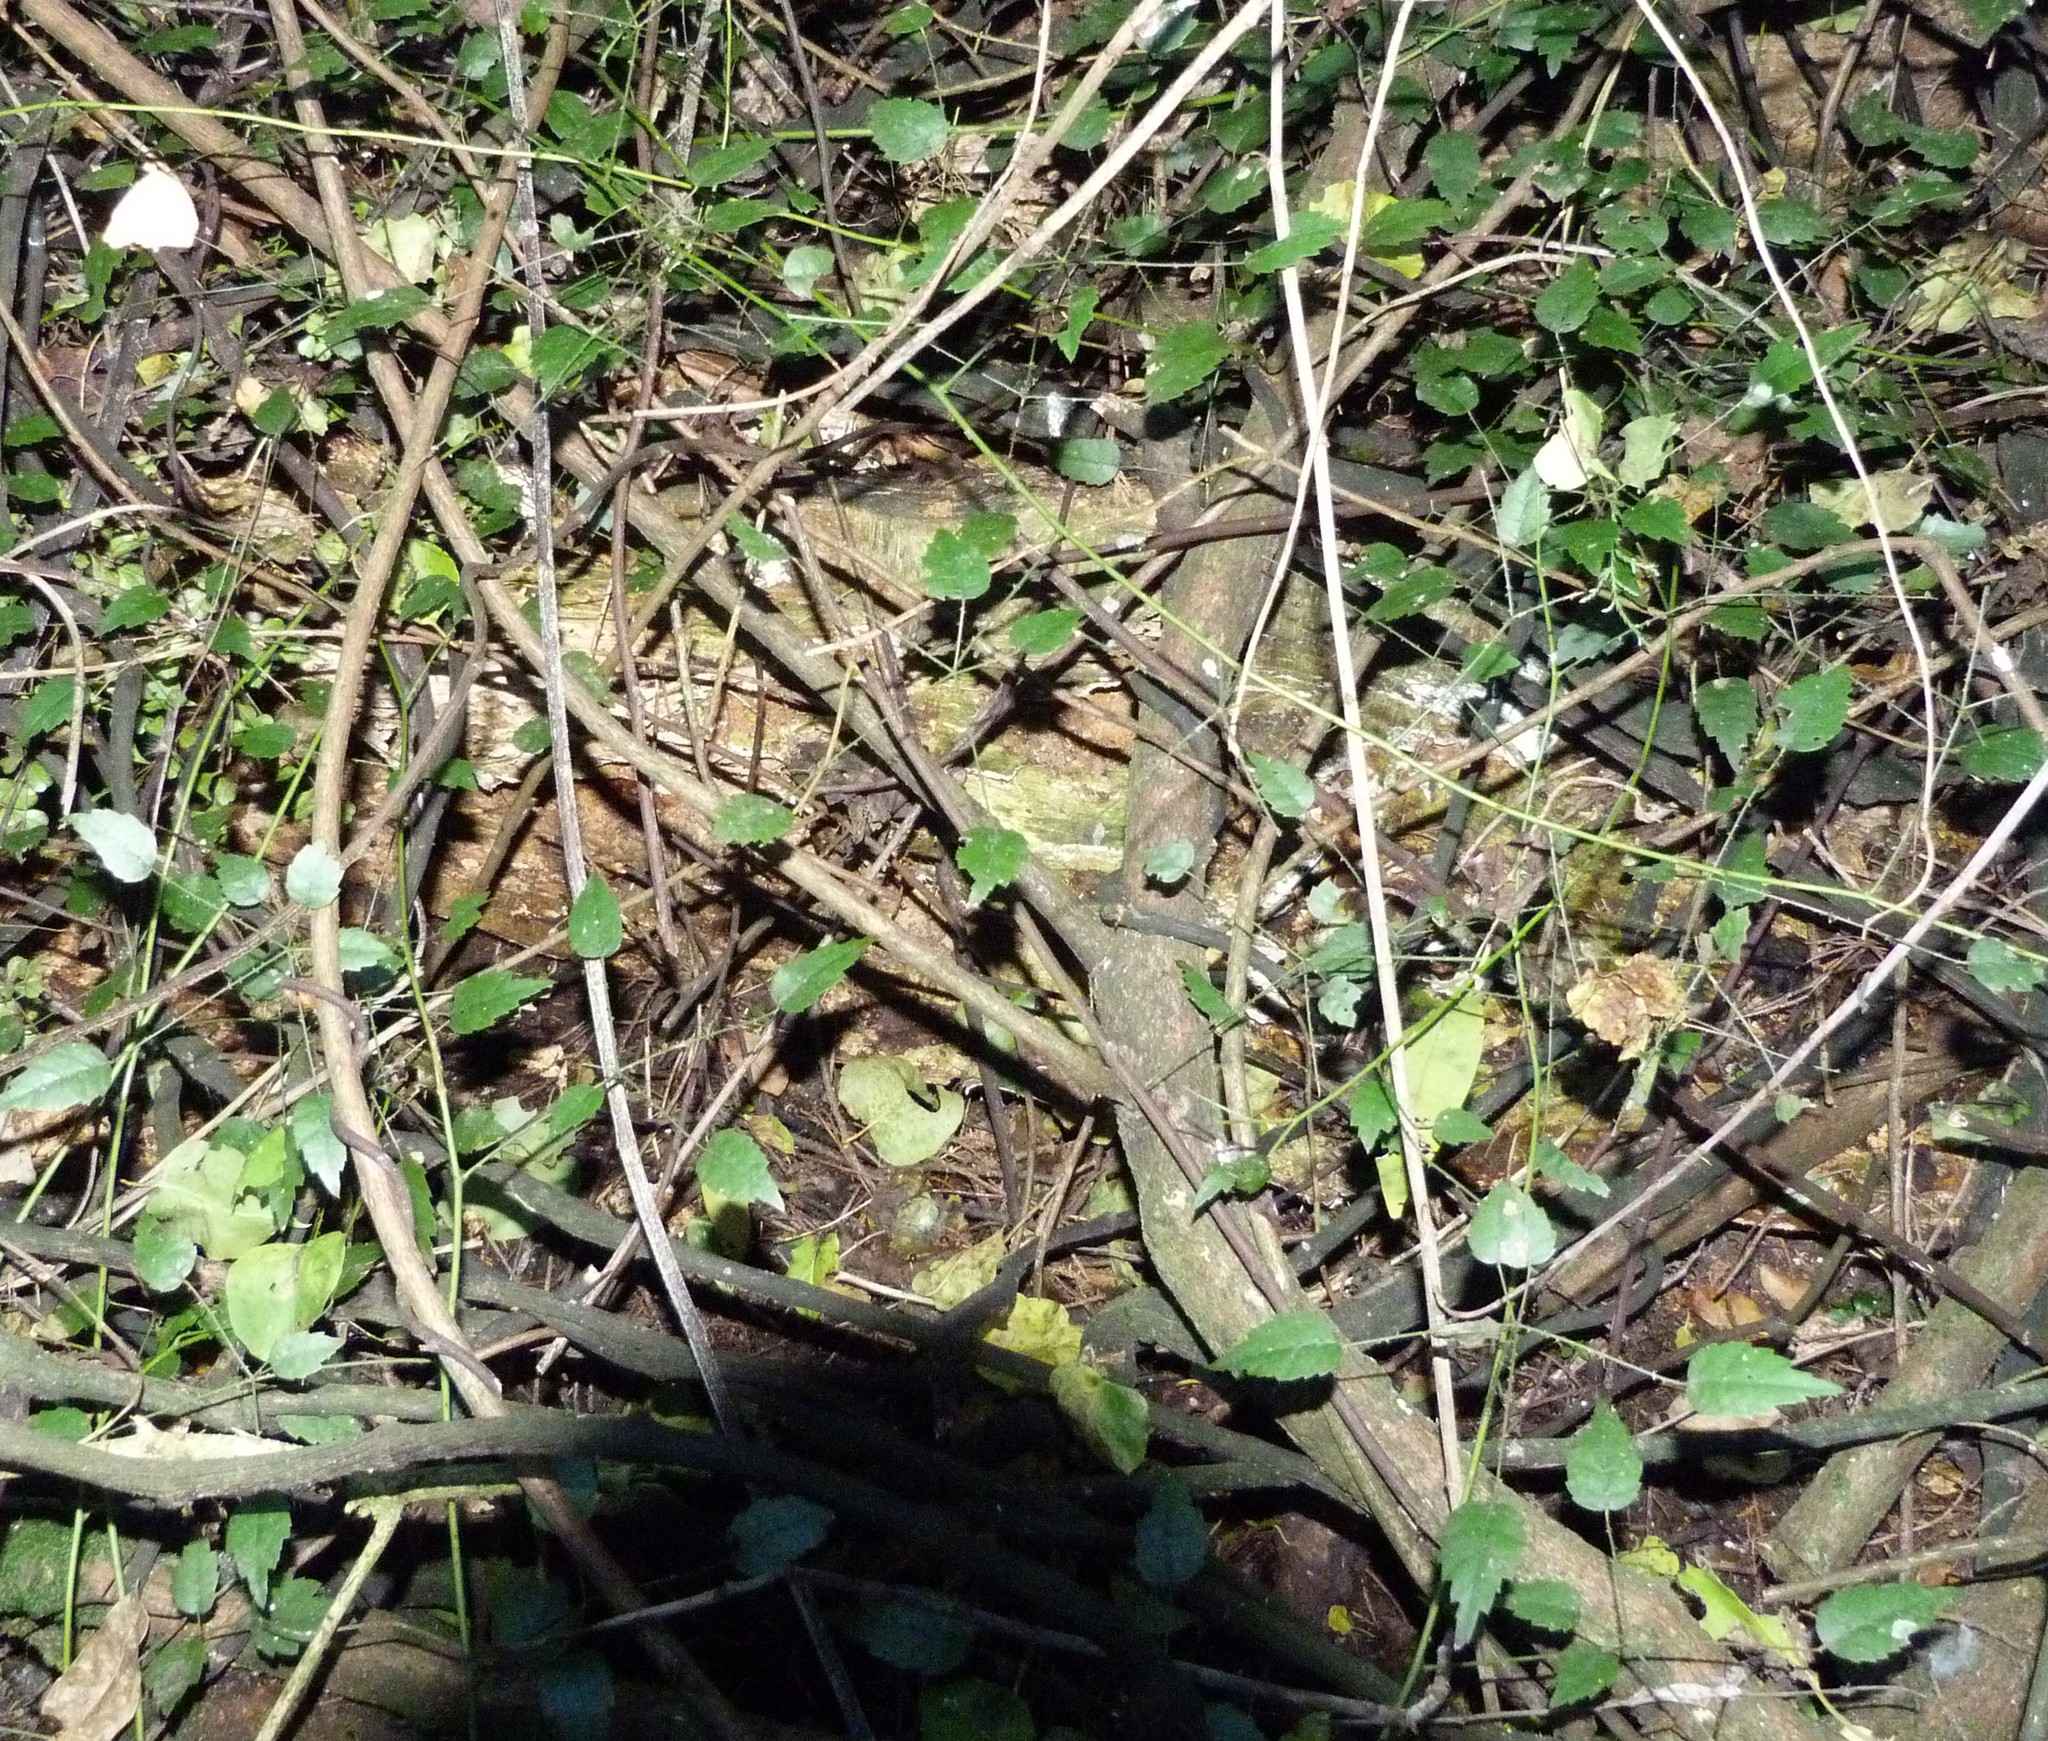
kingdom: Plantae
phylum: Tracheophyta
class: Magnoliopsida
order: Rosales
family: Rosaceae
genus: Rubus
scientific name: Rubus australis
